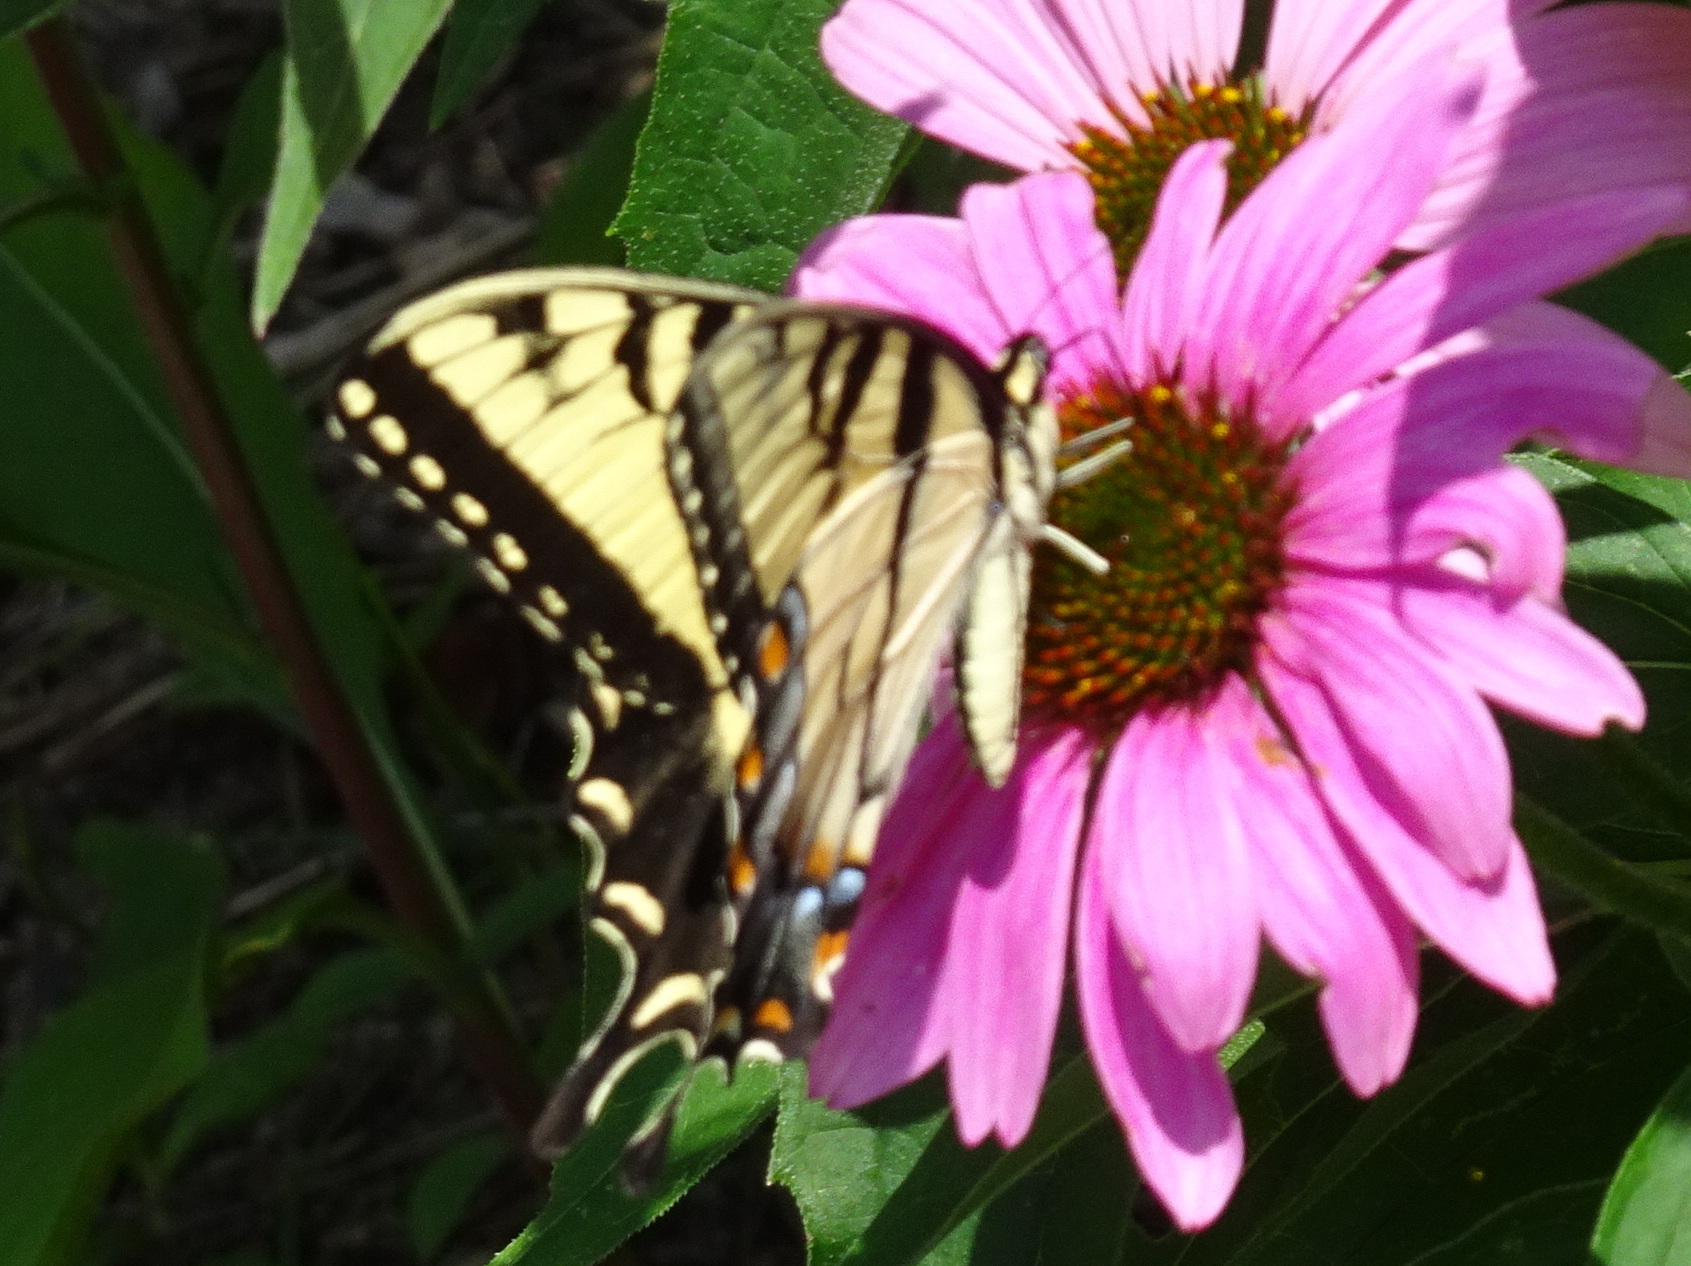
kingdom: Animalia
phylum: Arthropoda
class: Insecta
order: Lepidoptera
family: Papilionidae
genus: Papilio
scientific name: Papilio glaucus
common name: Tiger swallowtail
